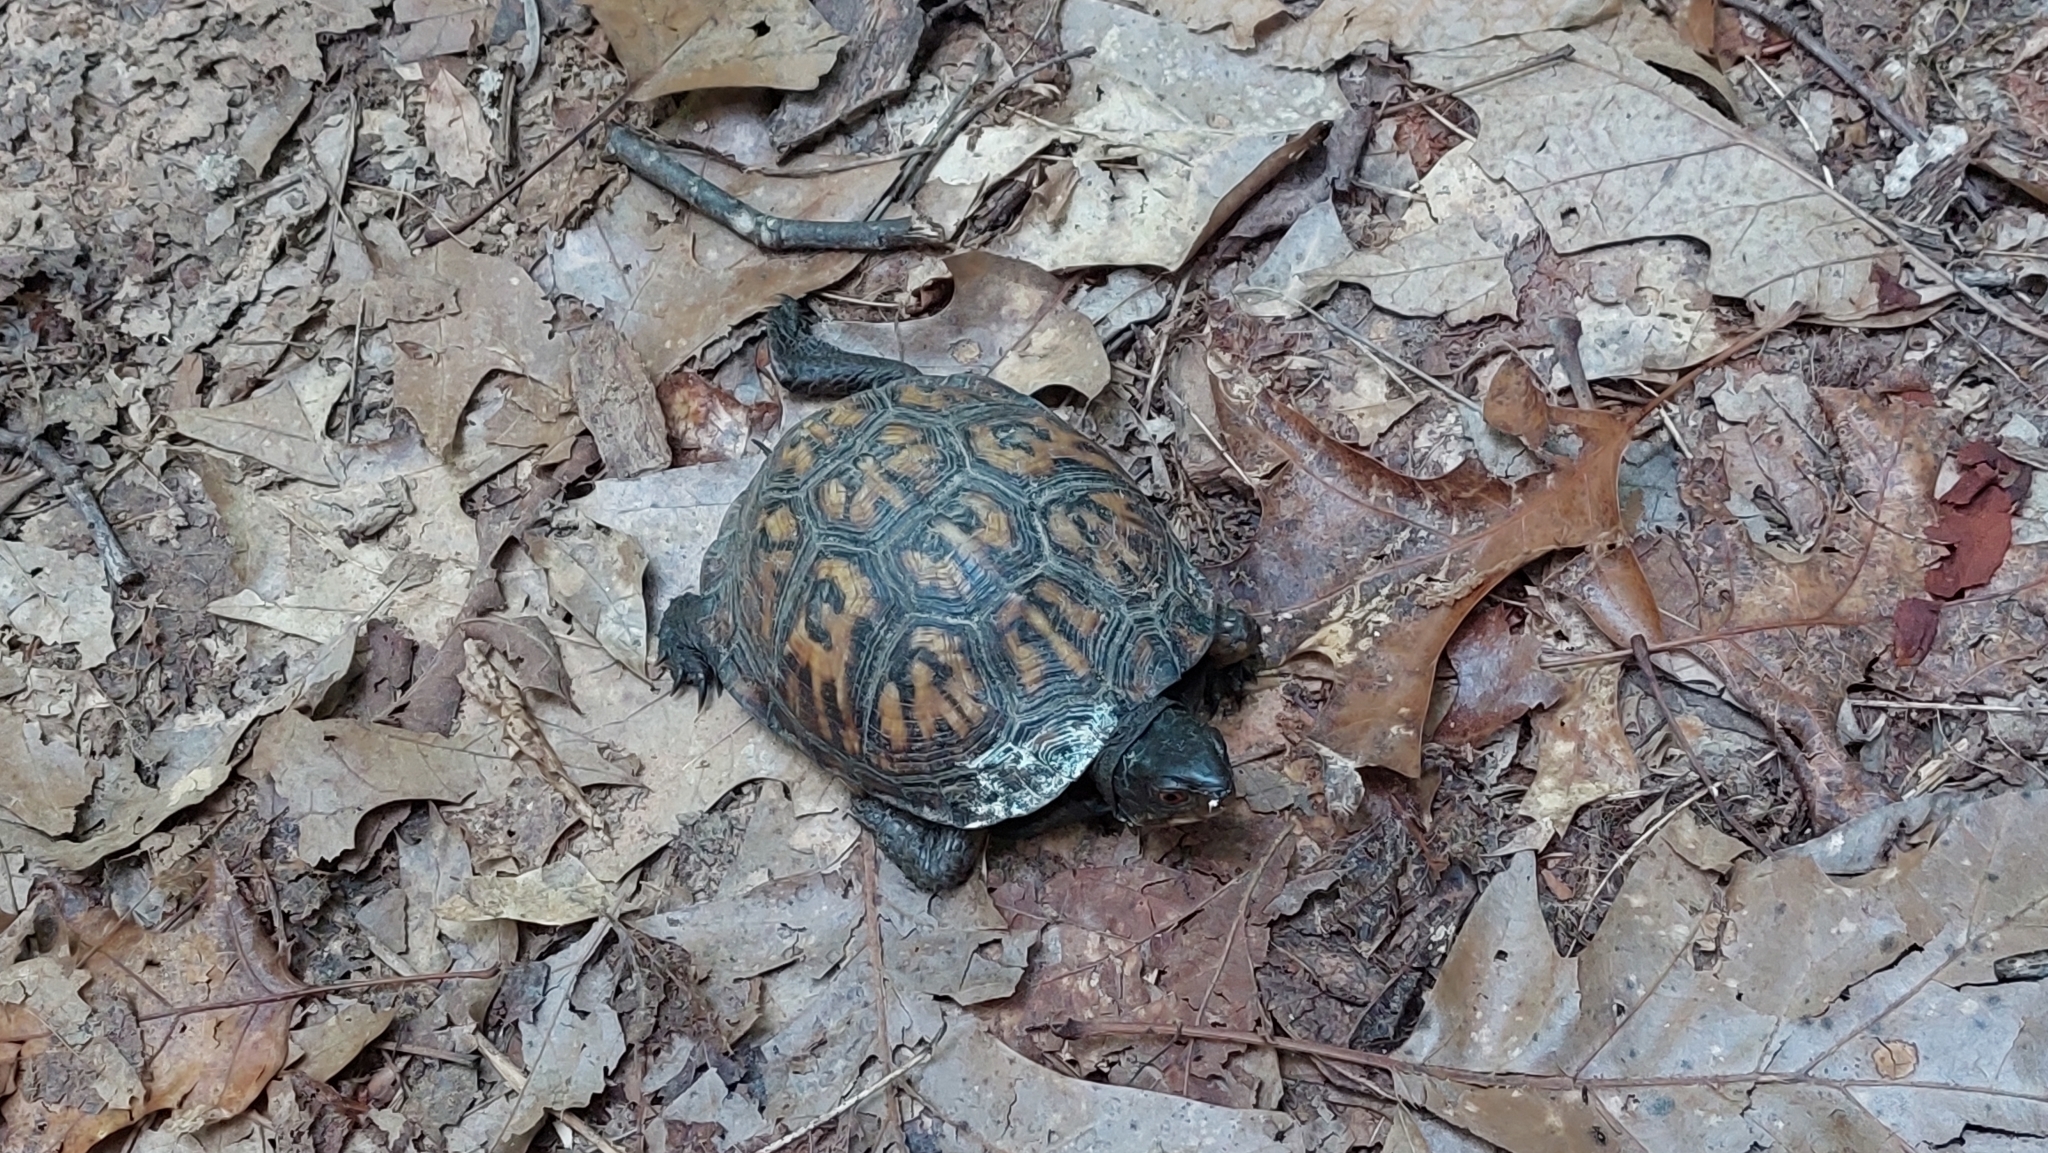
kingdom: Animalia
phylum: Chordata
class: Testudines
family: Emydidae
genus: Terrapene
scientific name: Terrapene carolina
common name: Common box turtle
